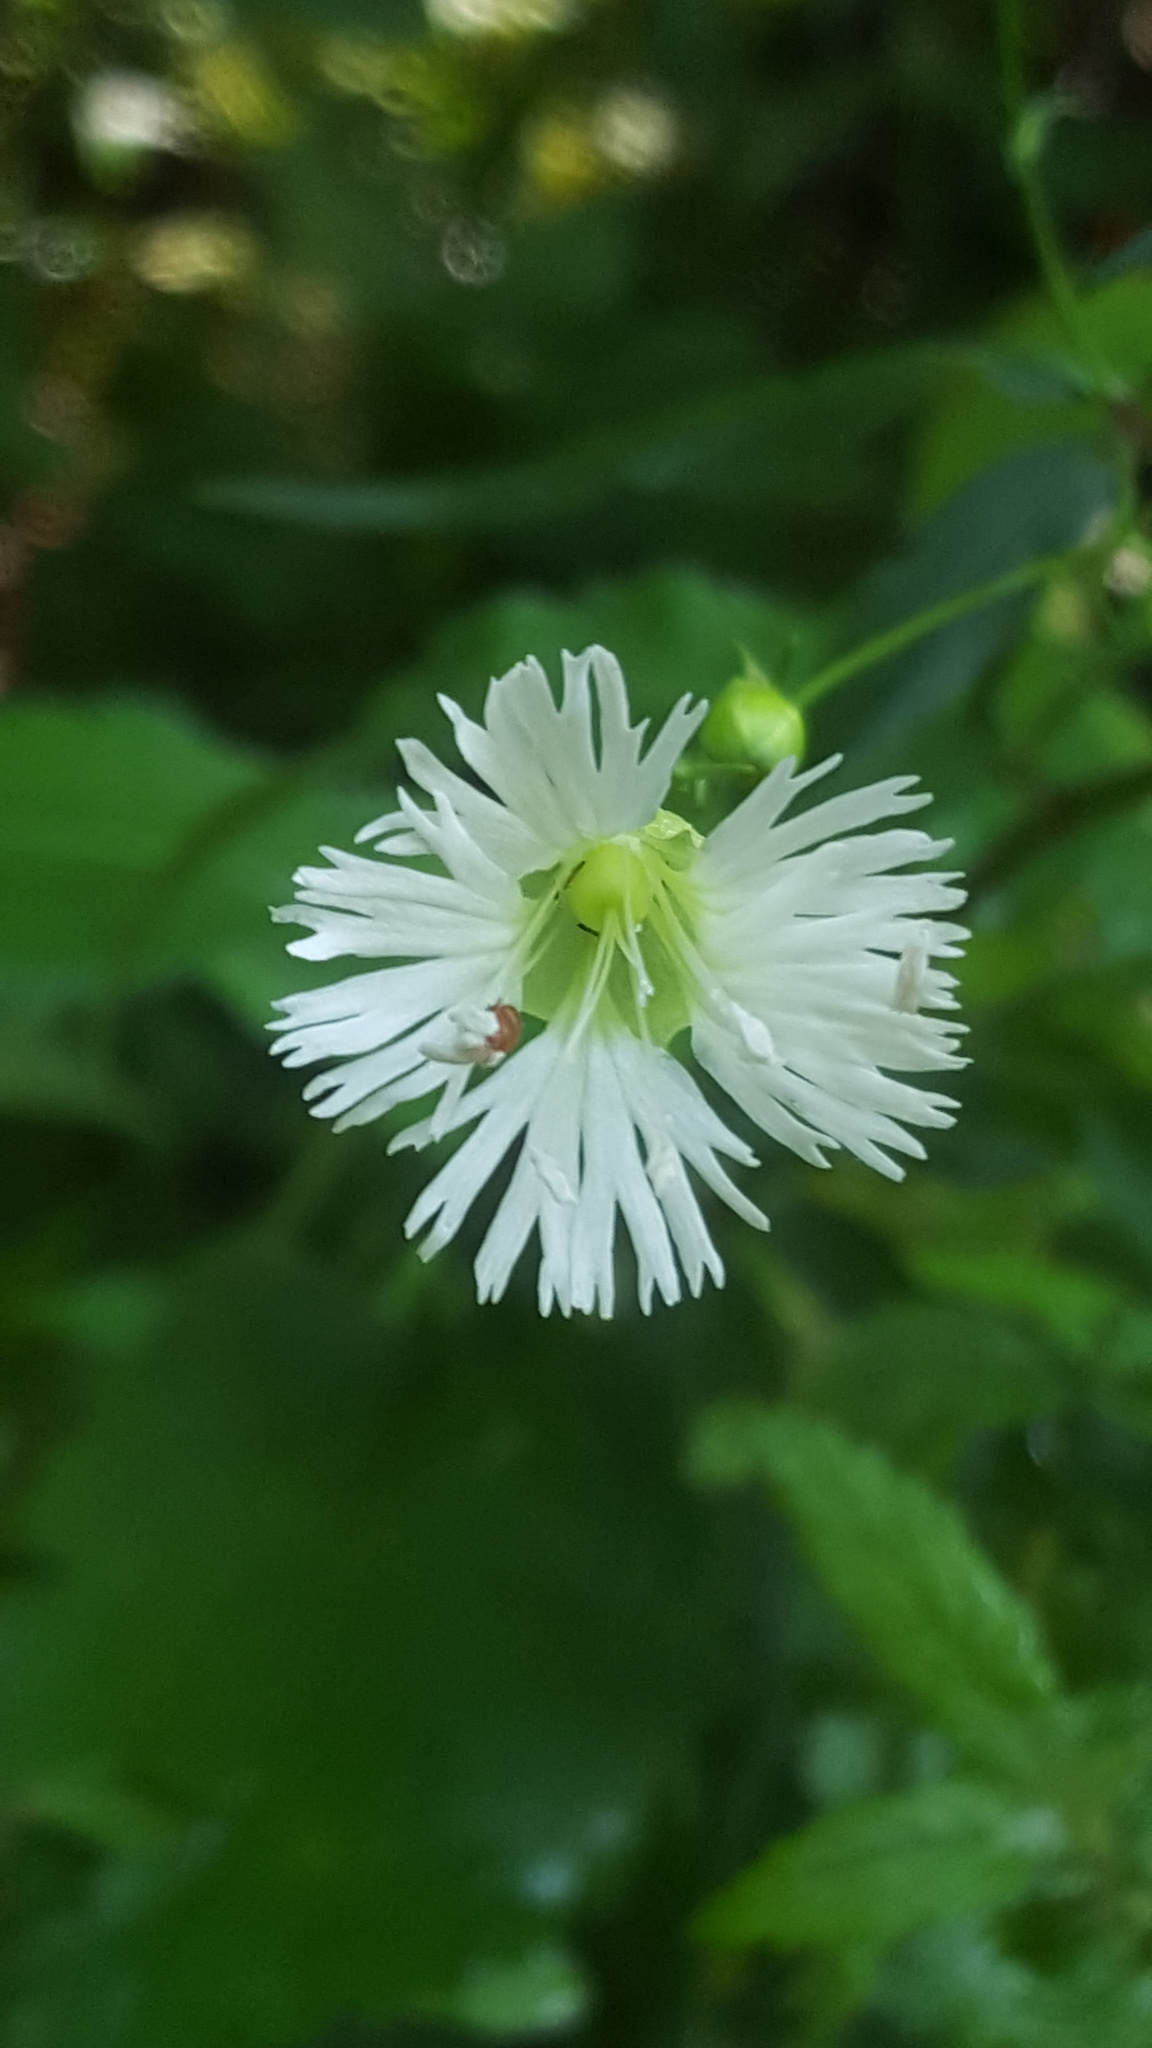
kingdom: Plantae
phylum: Tracheophyta
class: Magnoliopsida
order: Caryophyllales
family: Caryophyllaceae
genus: Silene
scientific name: Silene stellata
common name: Starry campion
